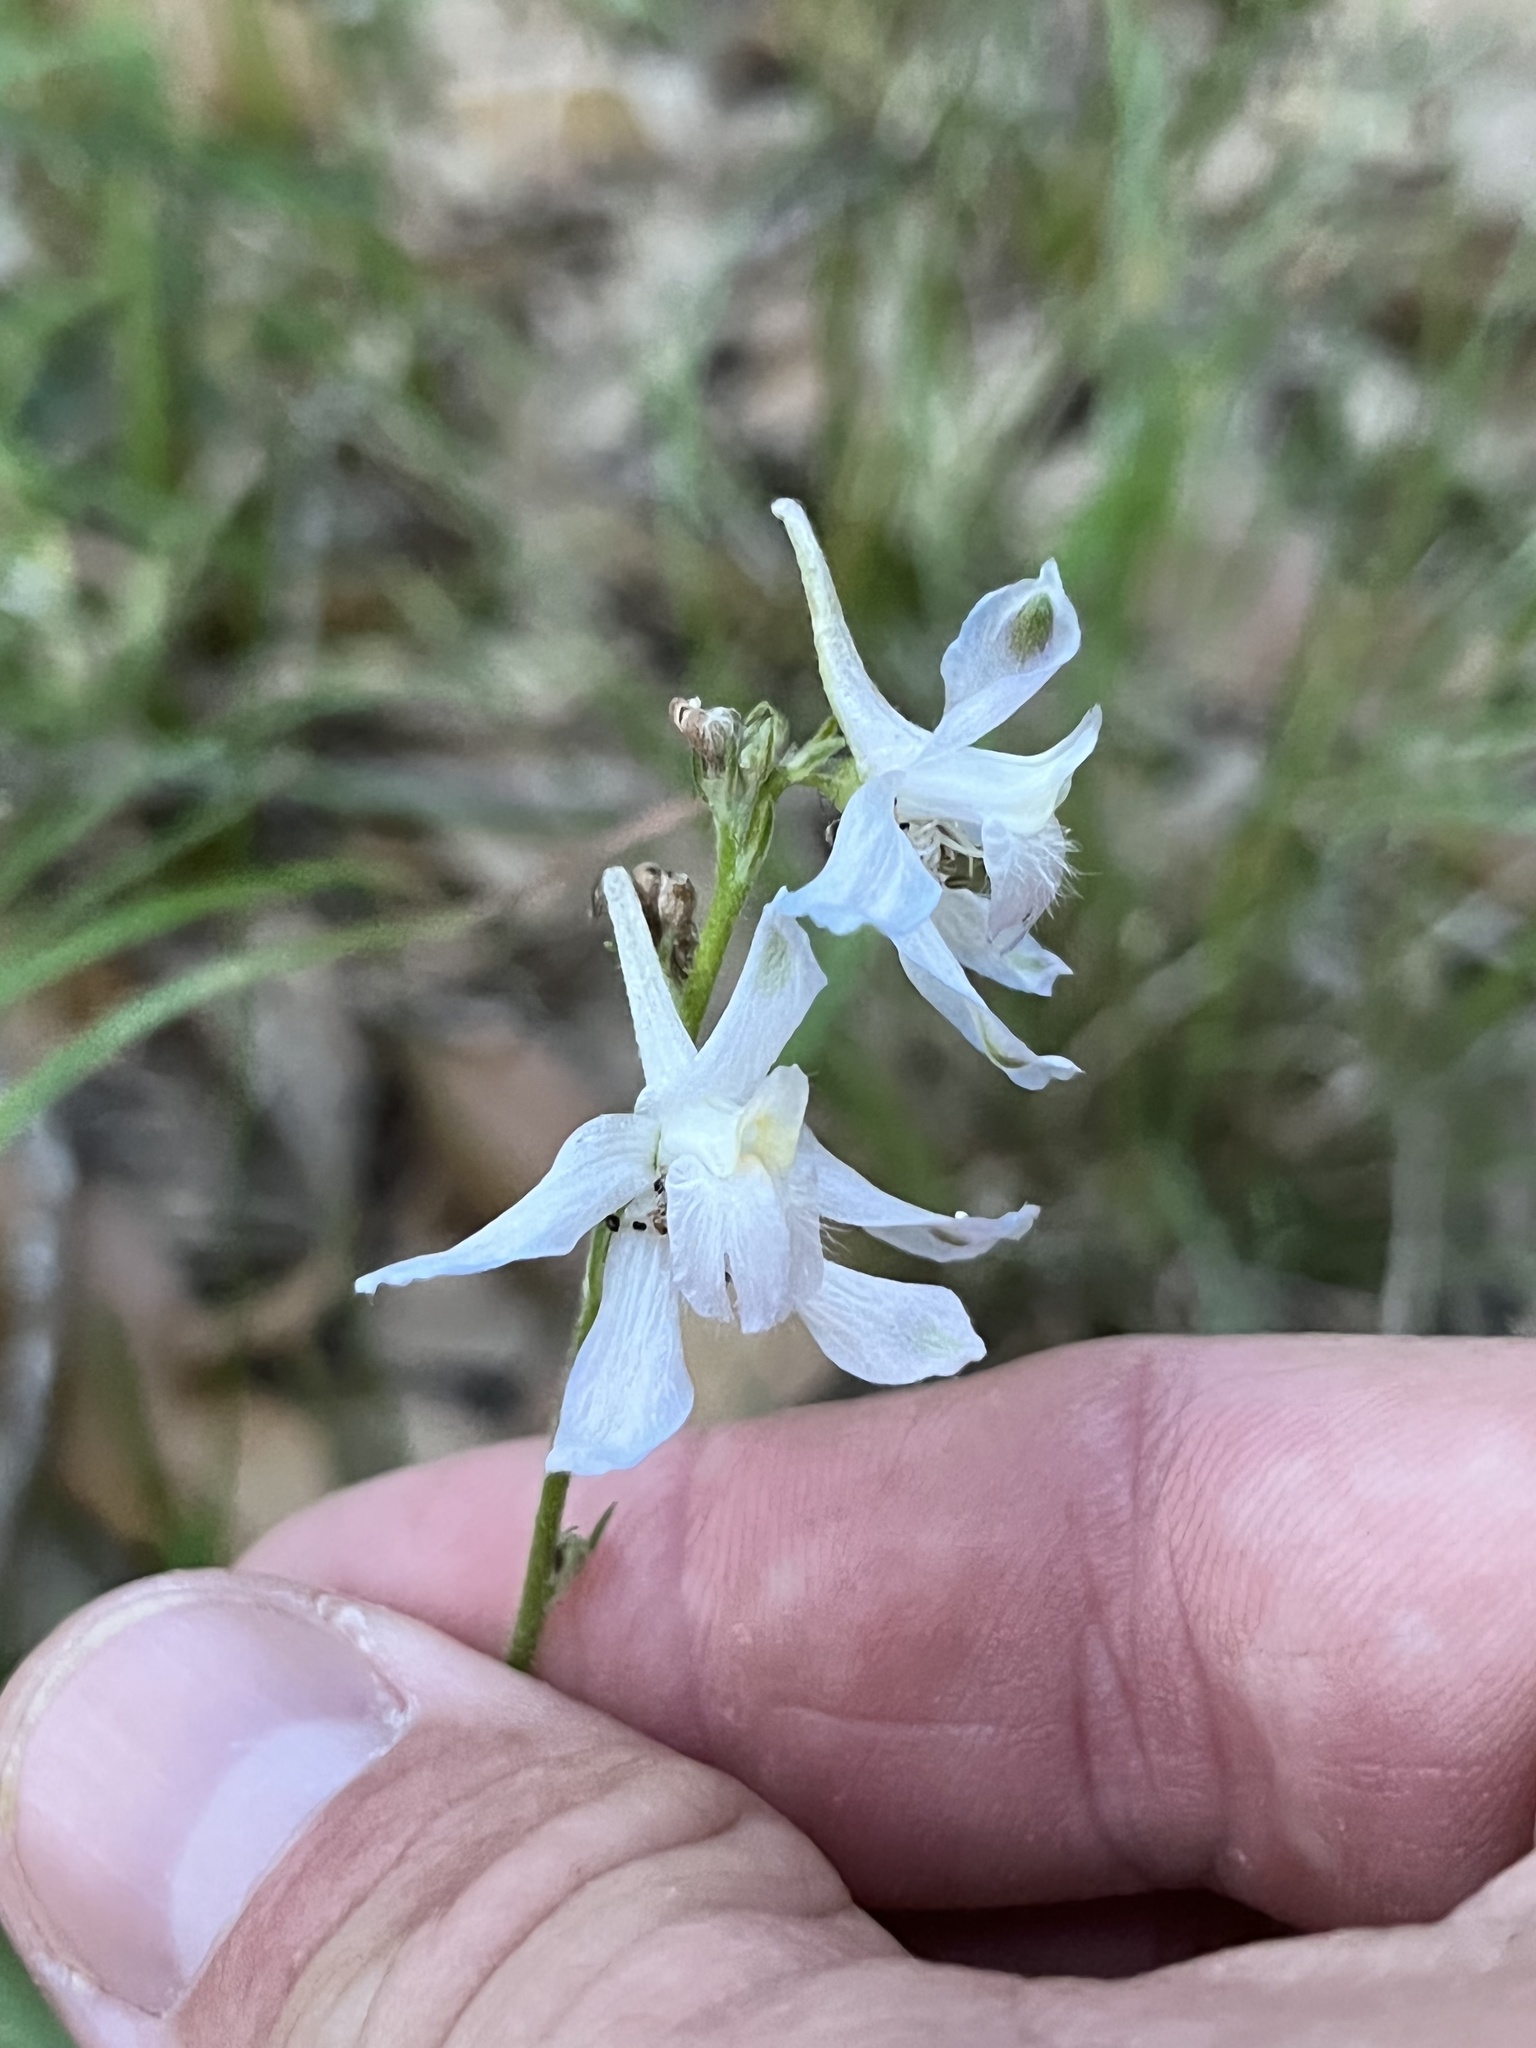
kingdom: Plantae
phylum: Tracheophyta
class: Magnoliopsida
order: Ranunculales
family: Ranunculaceae
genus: Delphinium
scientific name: Delphinium carolinianum
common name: Carolina larkspur
